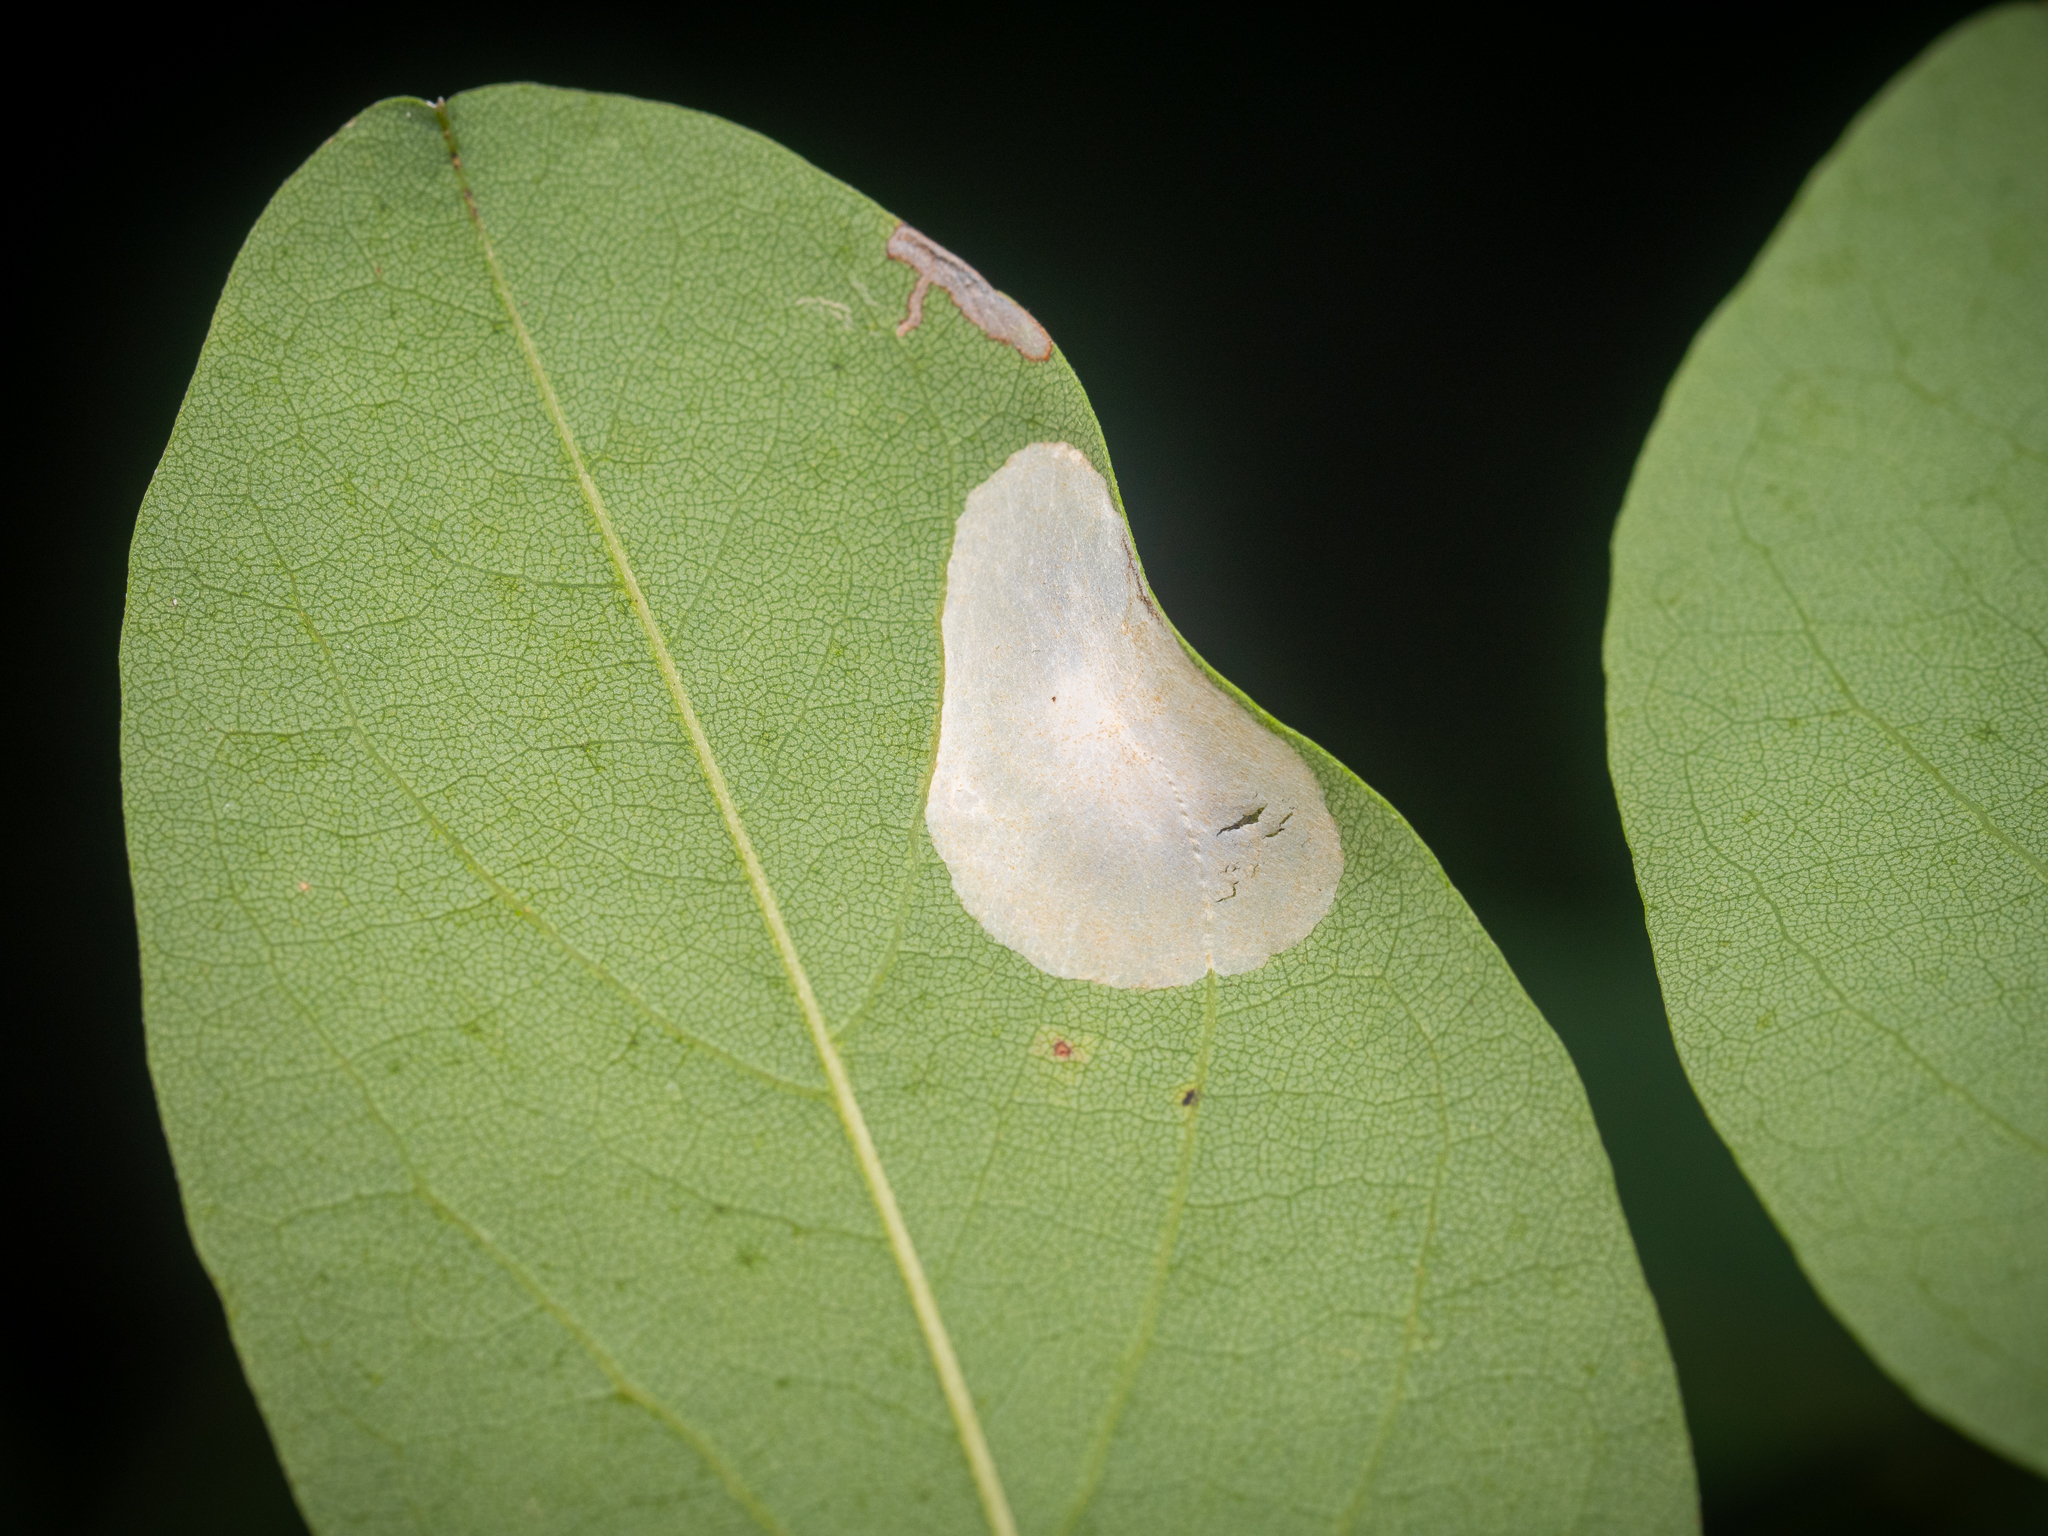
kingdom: Animalia
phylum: Arthropoda
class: Insecta
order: Lepidoptera
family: Gracillariidae
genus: Macrosaccus
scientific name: Macrosaccus robiniella
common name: Leaf blotch miner moth
